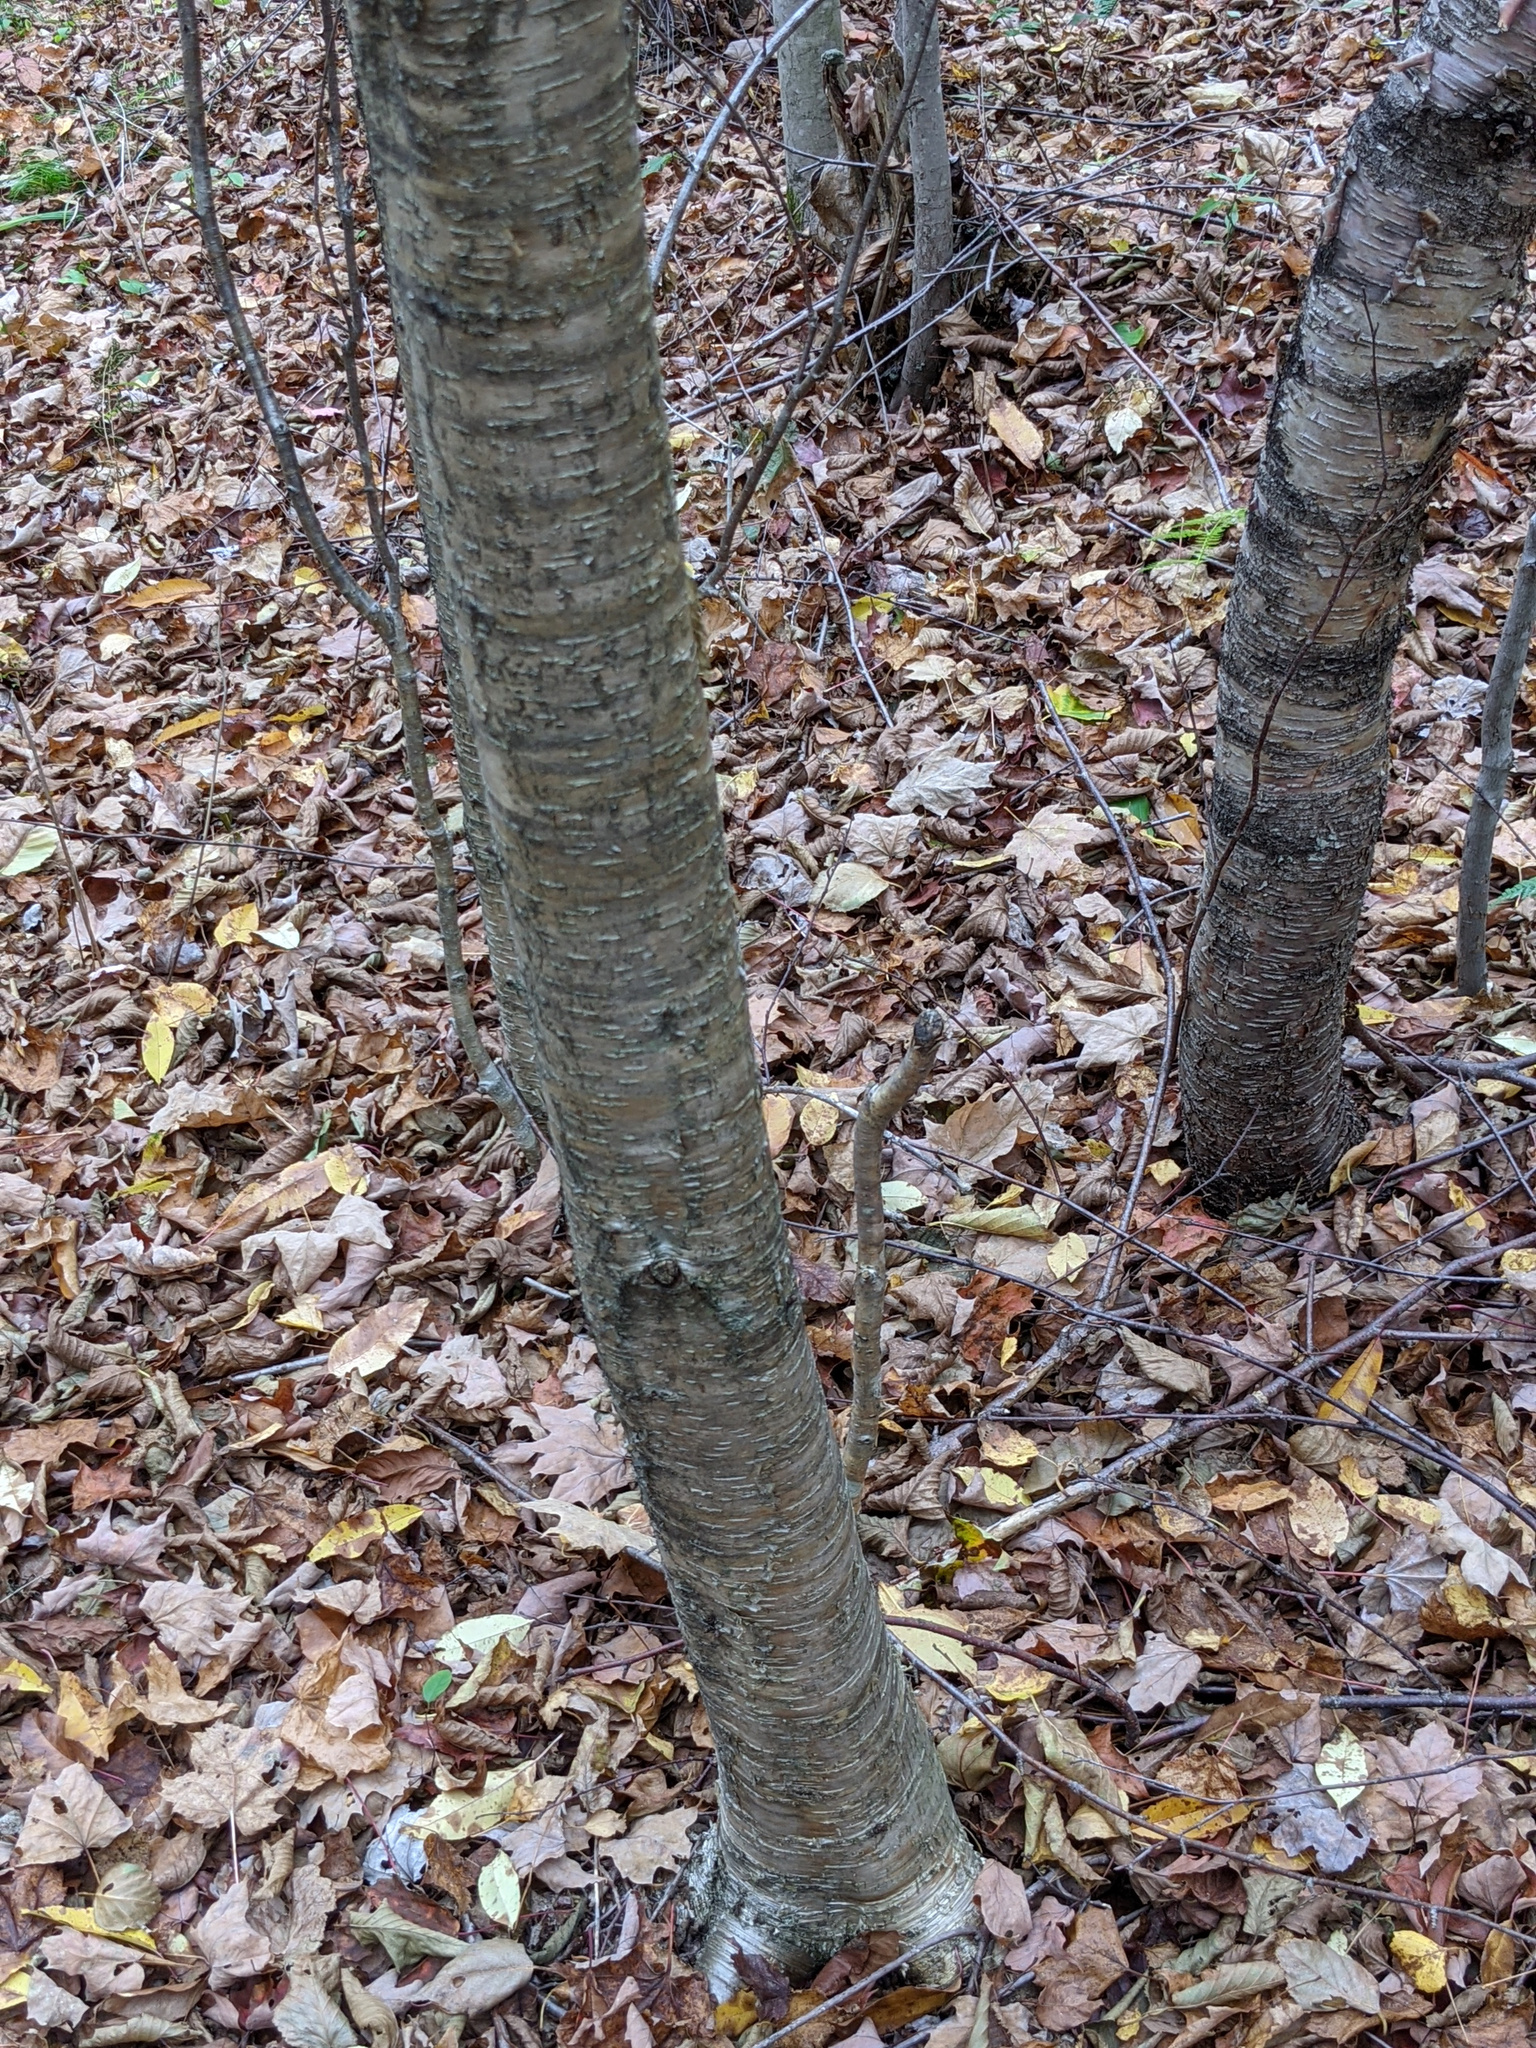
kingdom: Plantae
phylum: Tracheophyta
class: Magnoliopsida
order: Fagales
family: Betulaceae
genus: Betula
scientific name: Betula alleghaniensis
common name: Yellow birch
